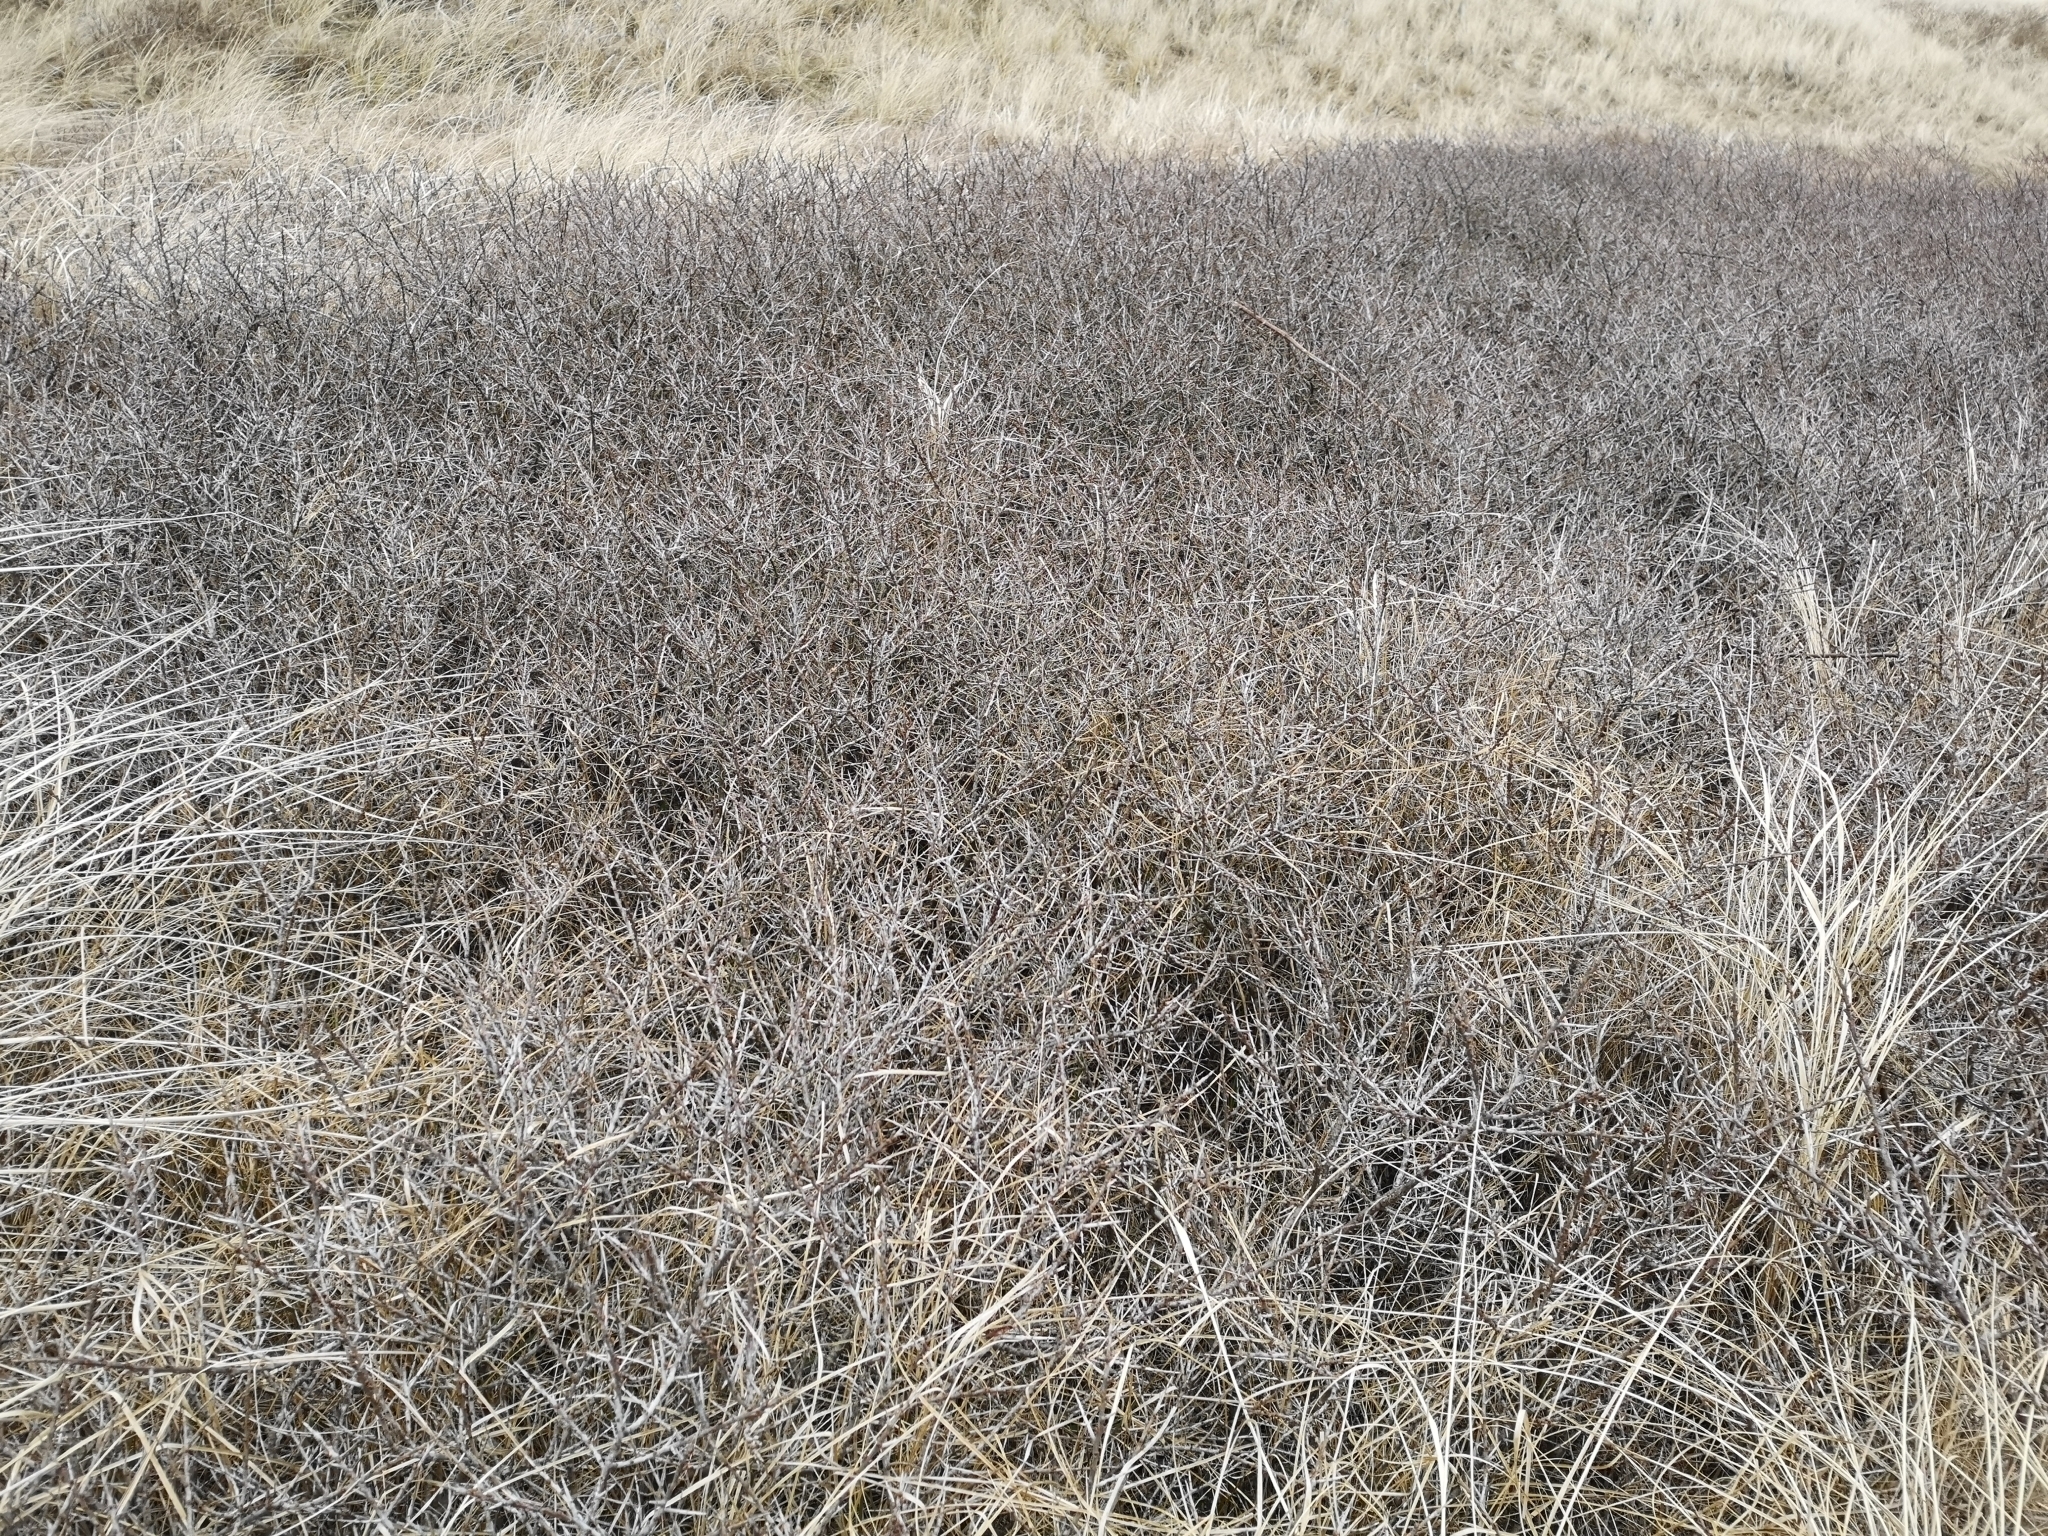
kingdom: Plantae
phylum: Tracheophyta
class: Magnoliopsida
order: Rosales
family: Elaeagnaceae
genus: Hippophae
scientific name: Hippophae rhamnoides
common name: Sea-buckthorn
